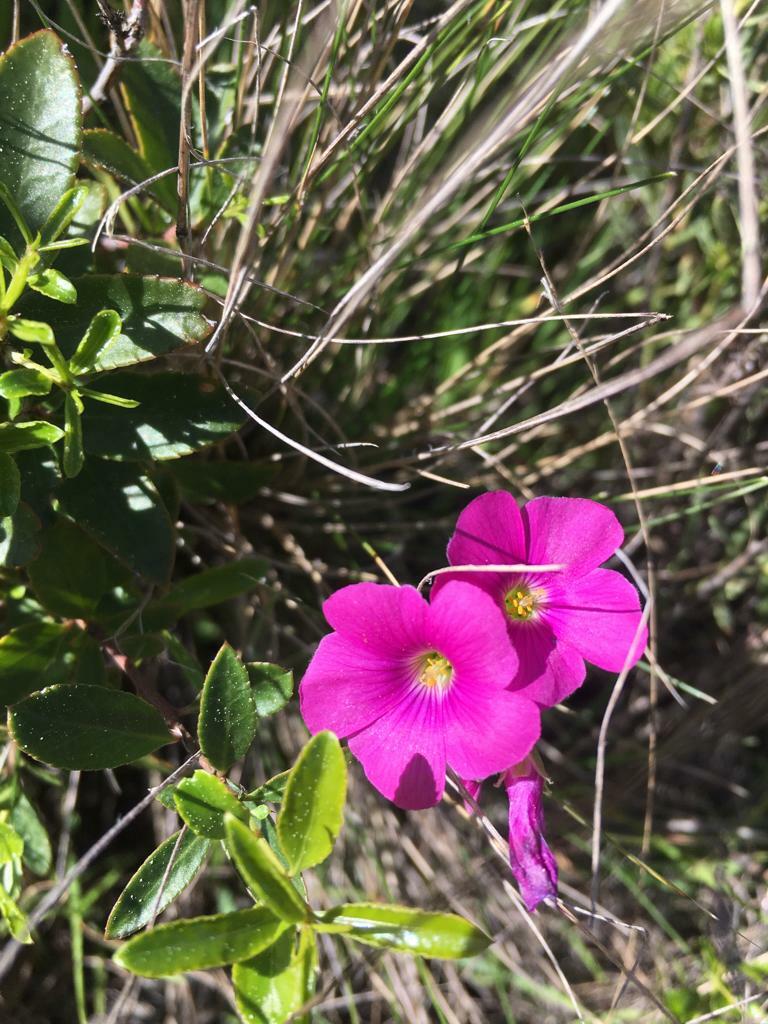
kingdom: Plantae
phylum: Tracheophyta
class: Magnoliopsida
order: Oxalidales
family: Oxalidaceae
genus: Oxalis
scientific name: Oxalis arenaria
